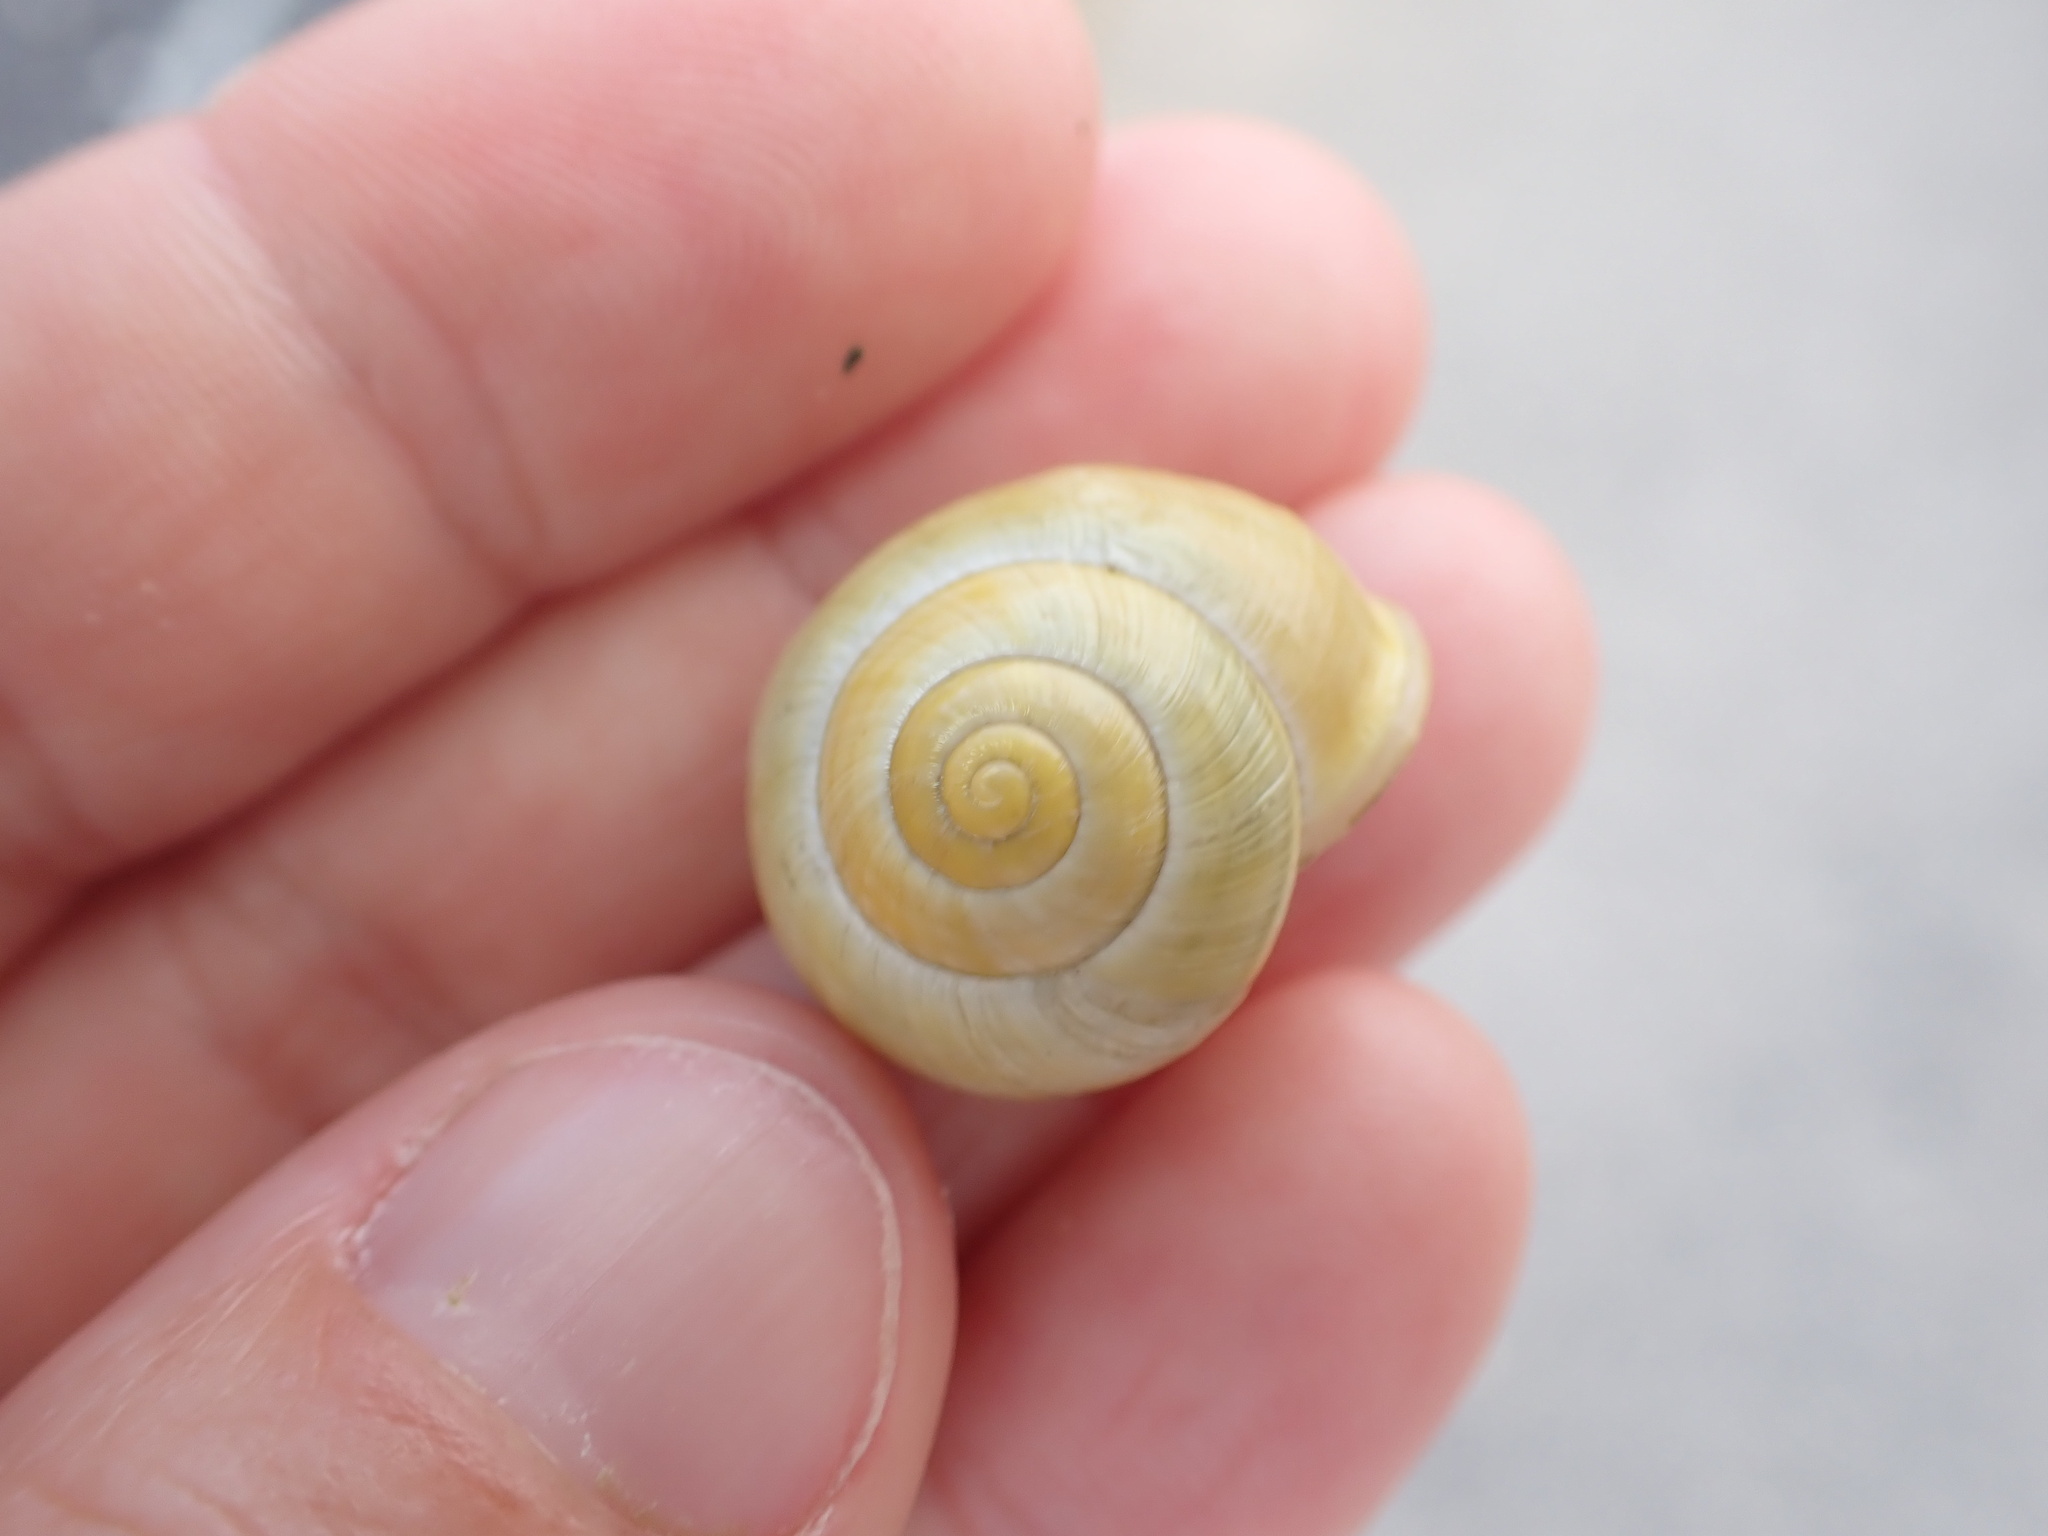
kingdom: Animalia
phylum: Mollusca
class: Gastropoda
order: Stylommatophora
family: Helicidae
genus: Cepaea
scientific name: Cepaea hortensis
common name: White-lip gardensnail
